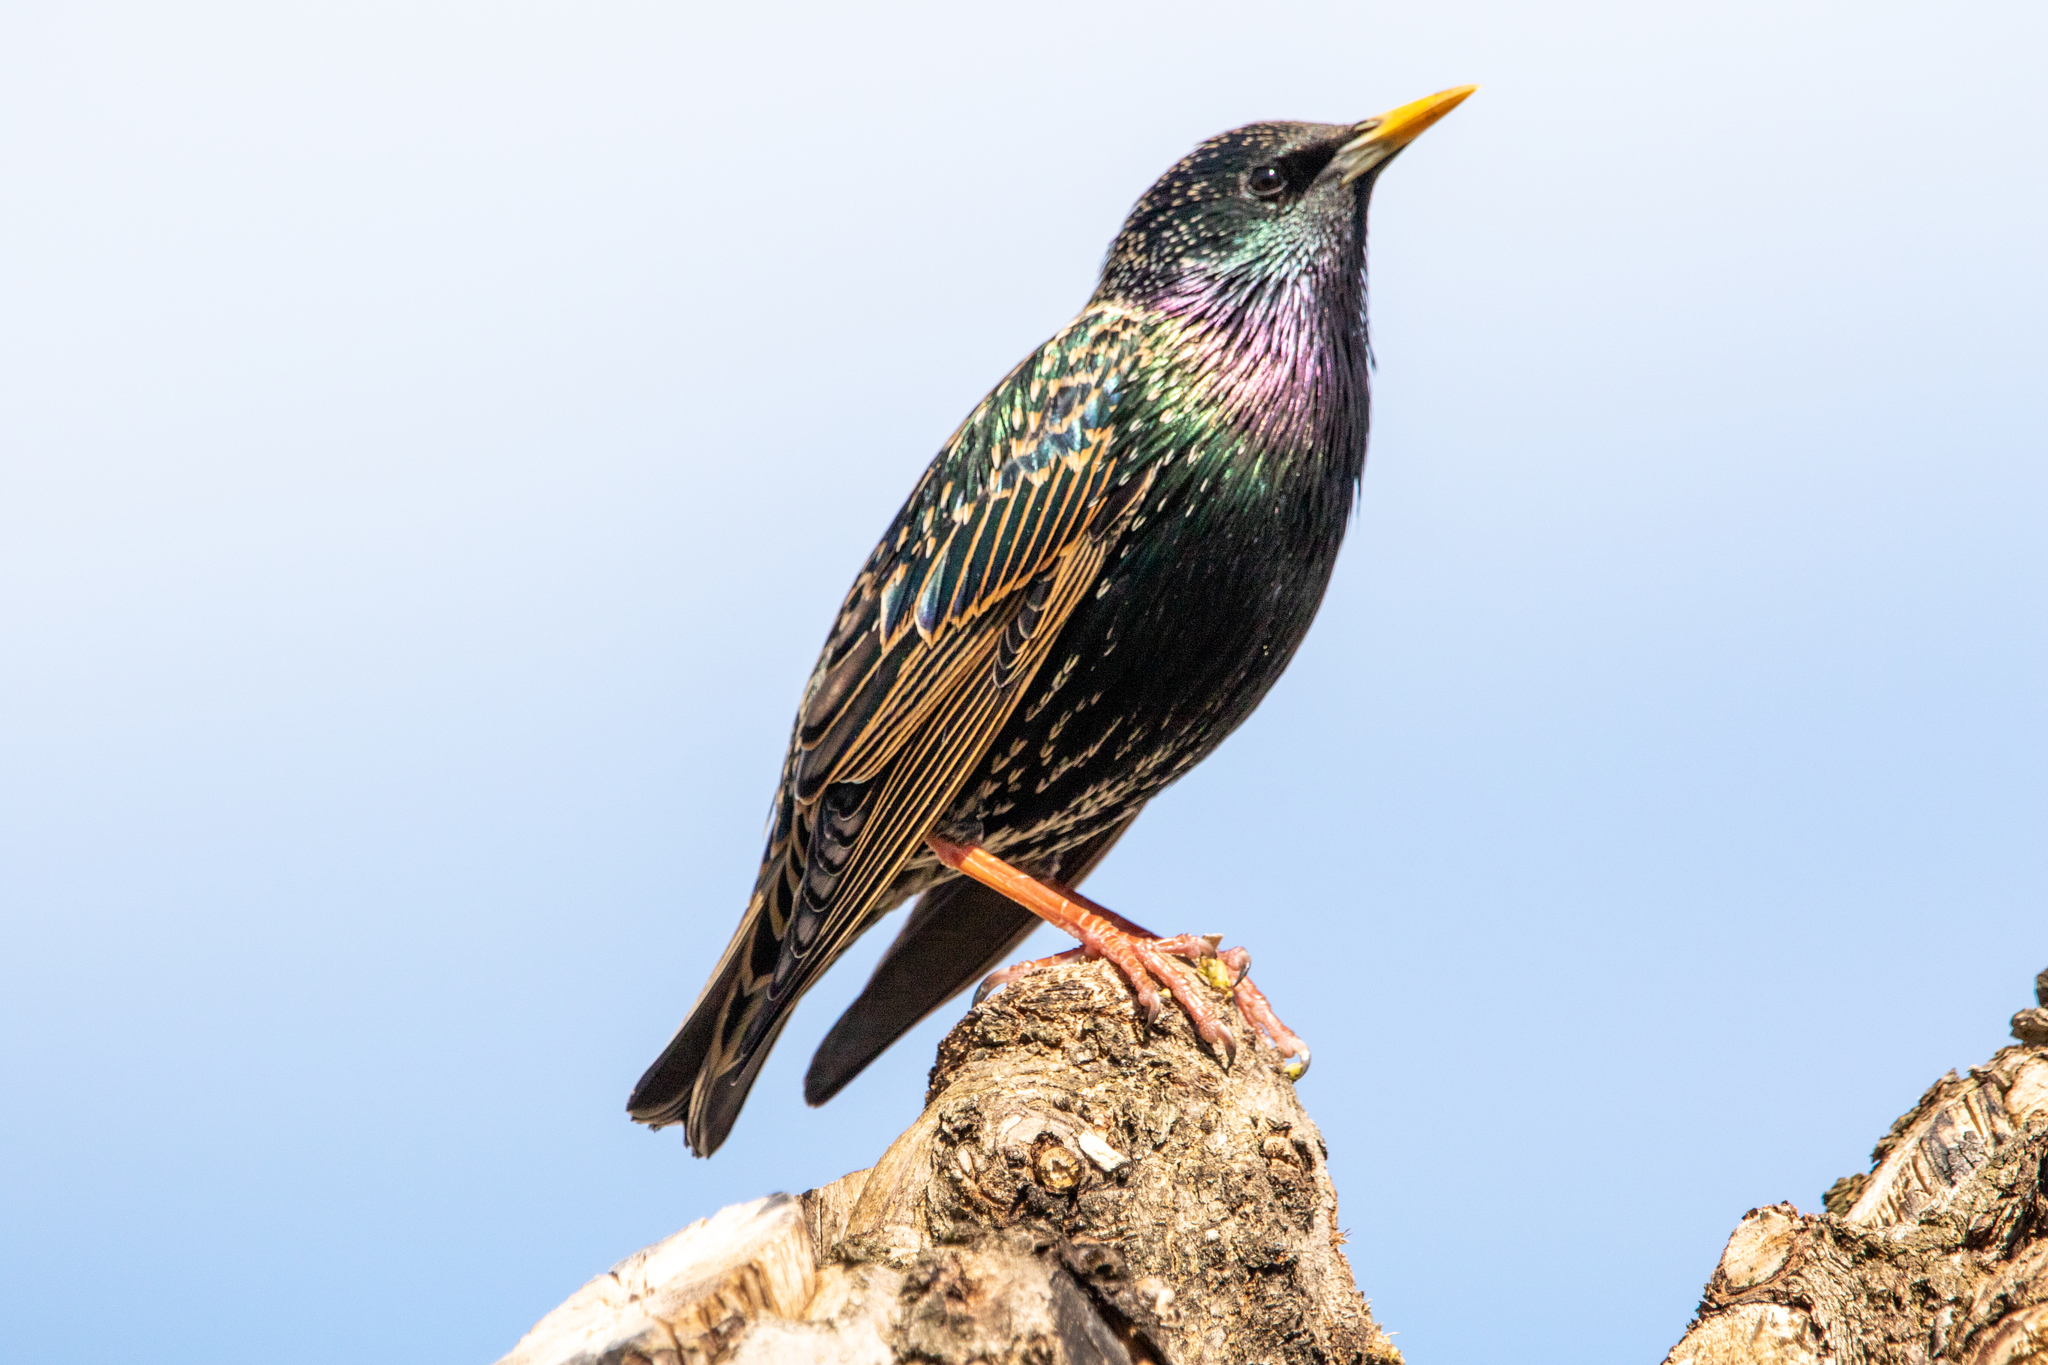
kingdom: Animalia
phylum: Chordata
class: Aves
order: Passeriformes
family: Sturnidae
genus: Sturnus
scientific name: Sturnus vulgaris
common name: Common starling
